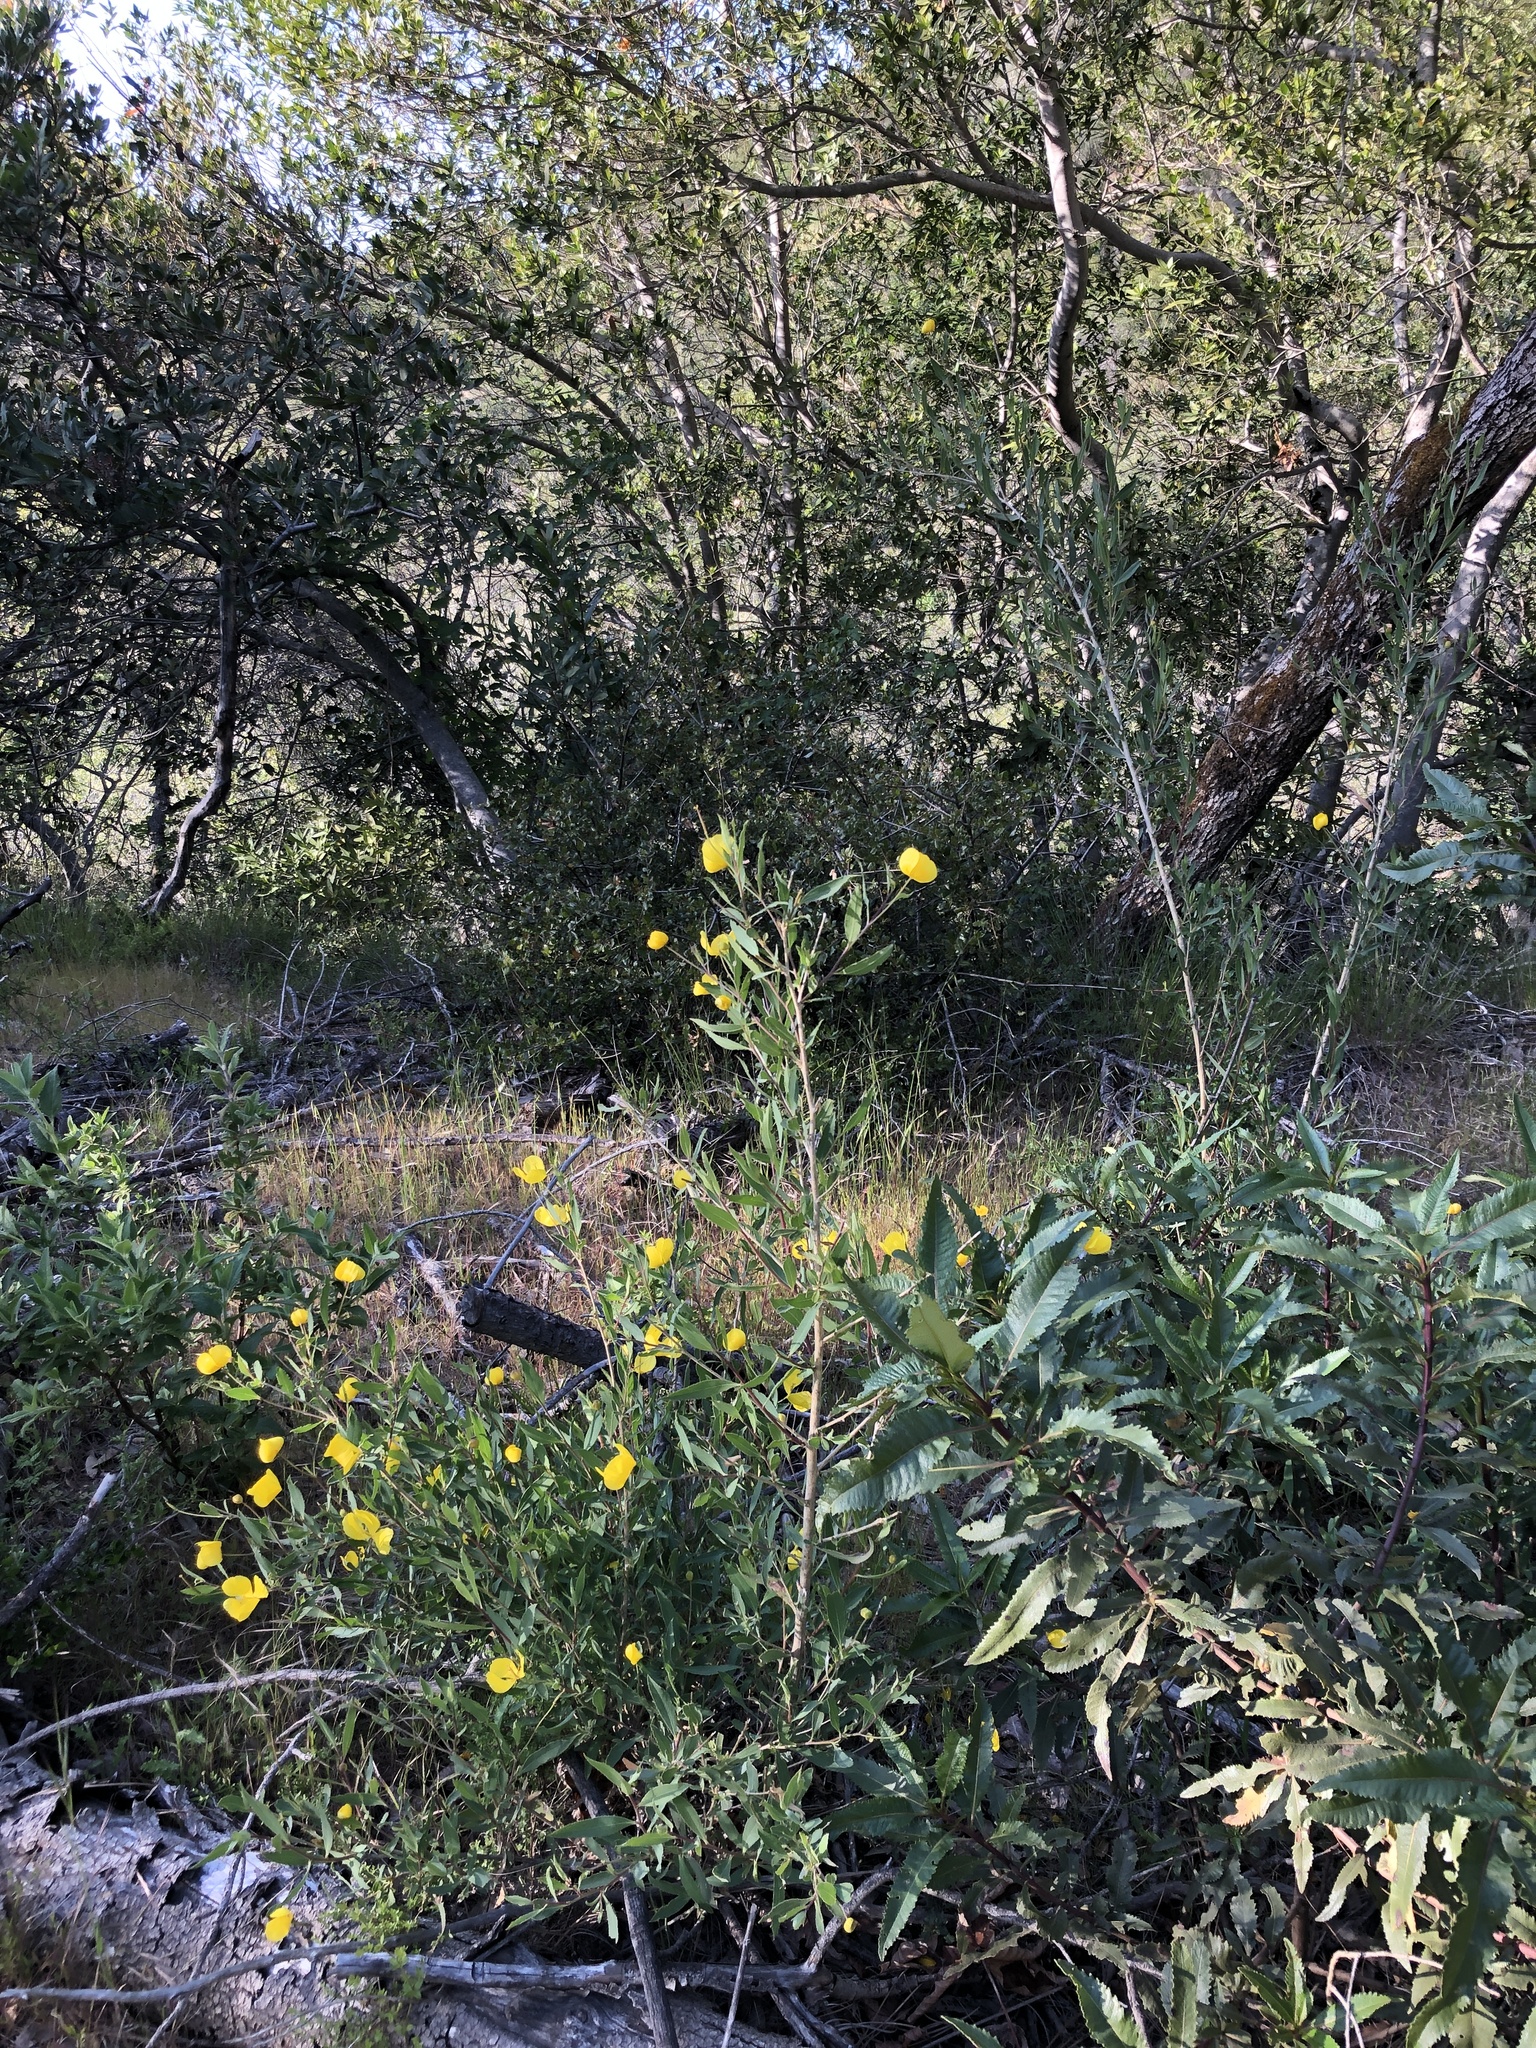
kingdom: Plantae
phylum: Tracheophyta
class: Magnoliopsida
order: Ranunculales
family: Papaveraceae
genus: Dendromecon
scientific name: Dendromecon rigida
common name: Tree poppy
